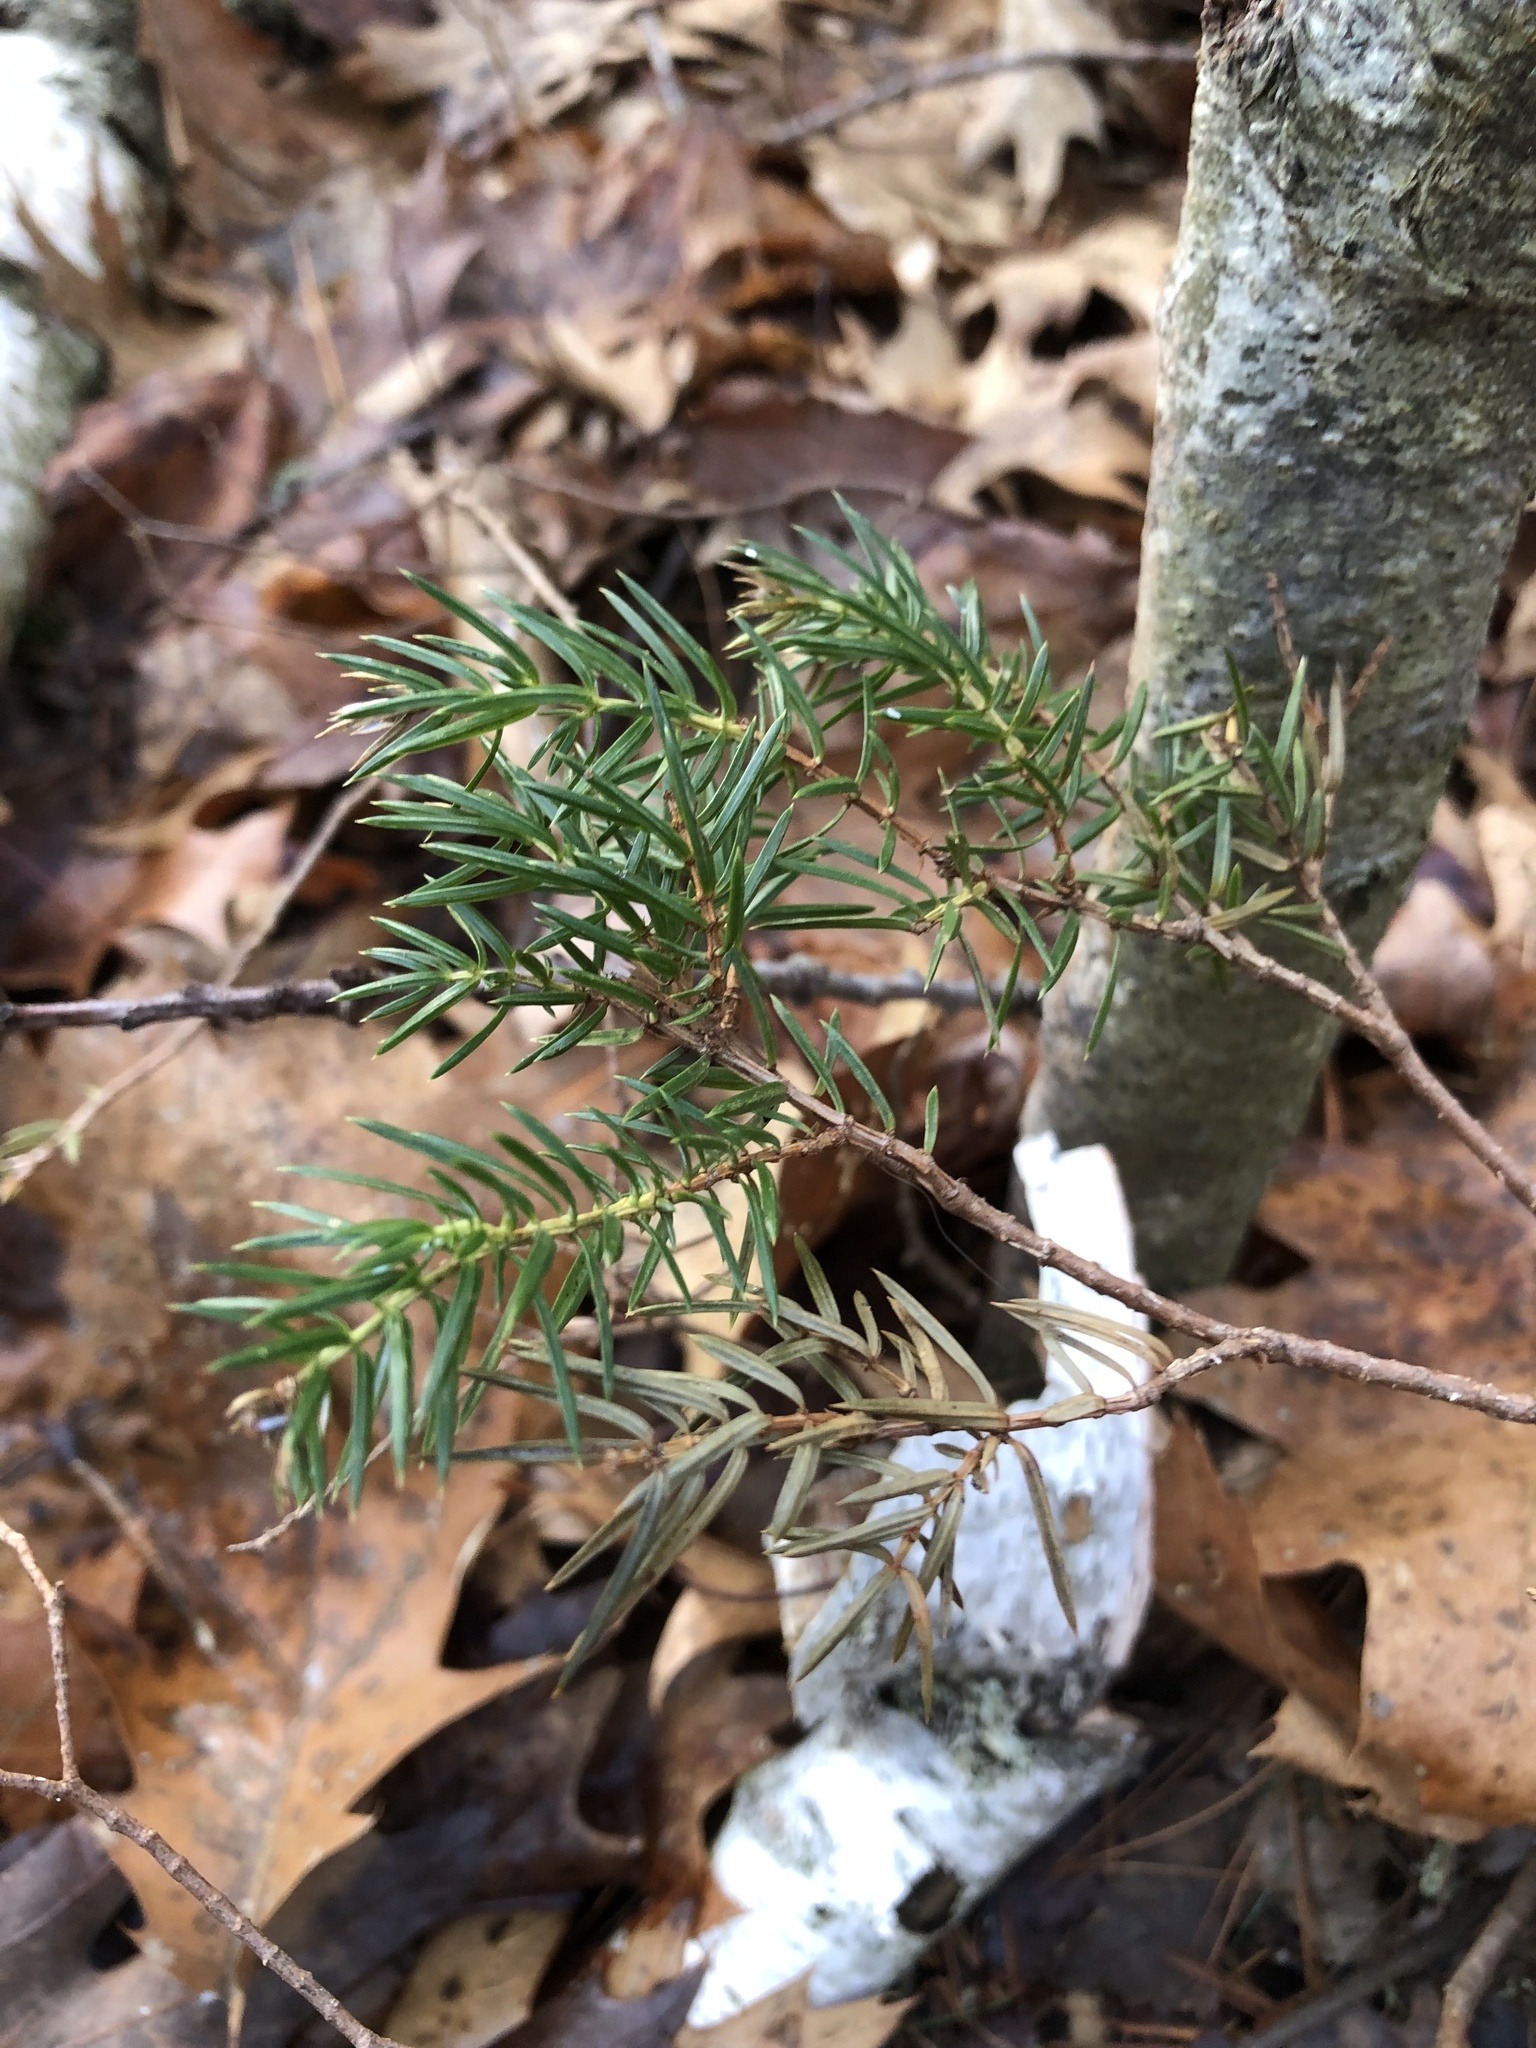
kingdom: Plantae
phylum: Tracheophyta
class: Pinopsida
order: Pinales
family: Cupressaceae
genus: Juniperus
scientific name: Juniperus communis
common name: Common juniper
